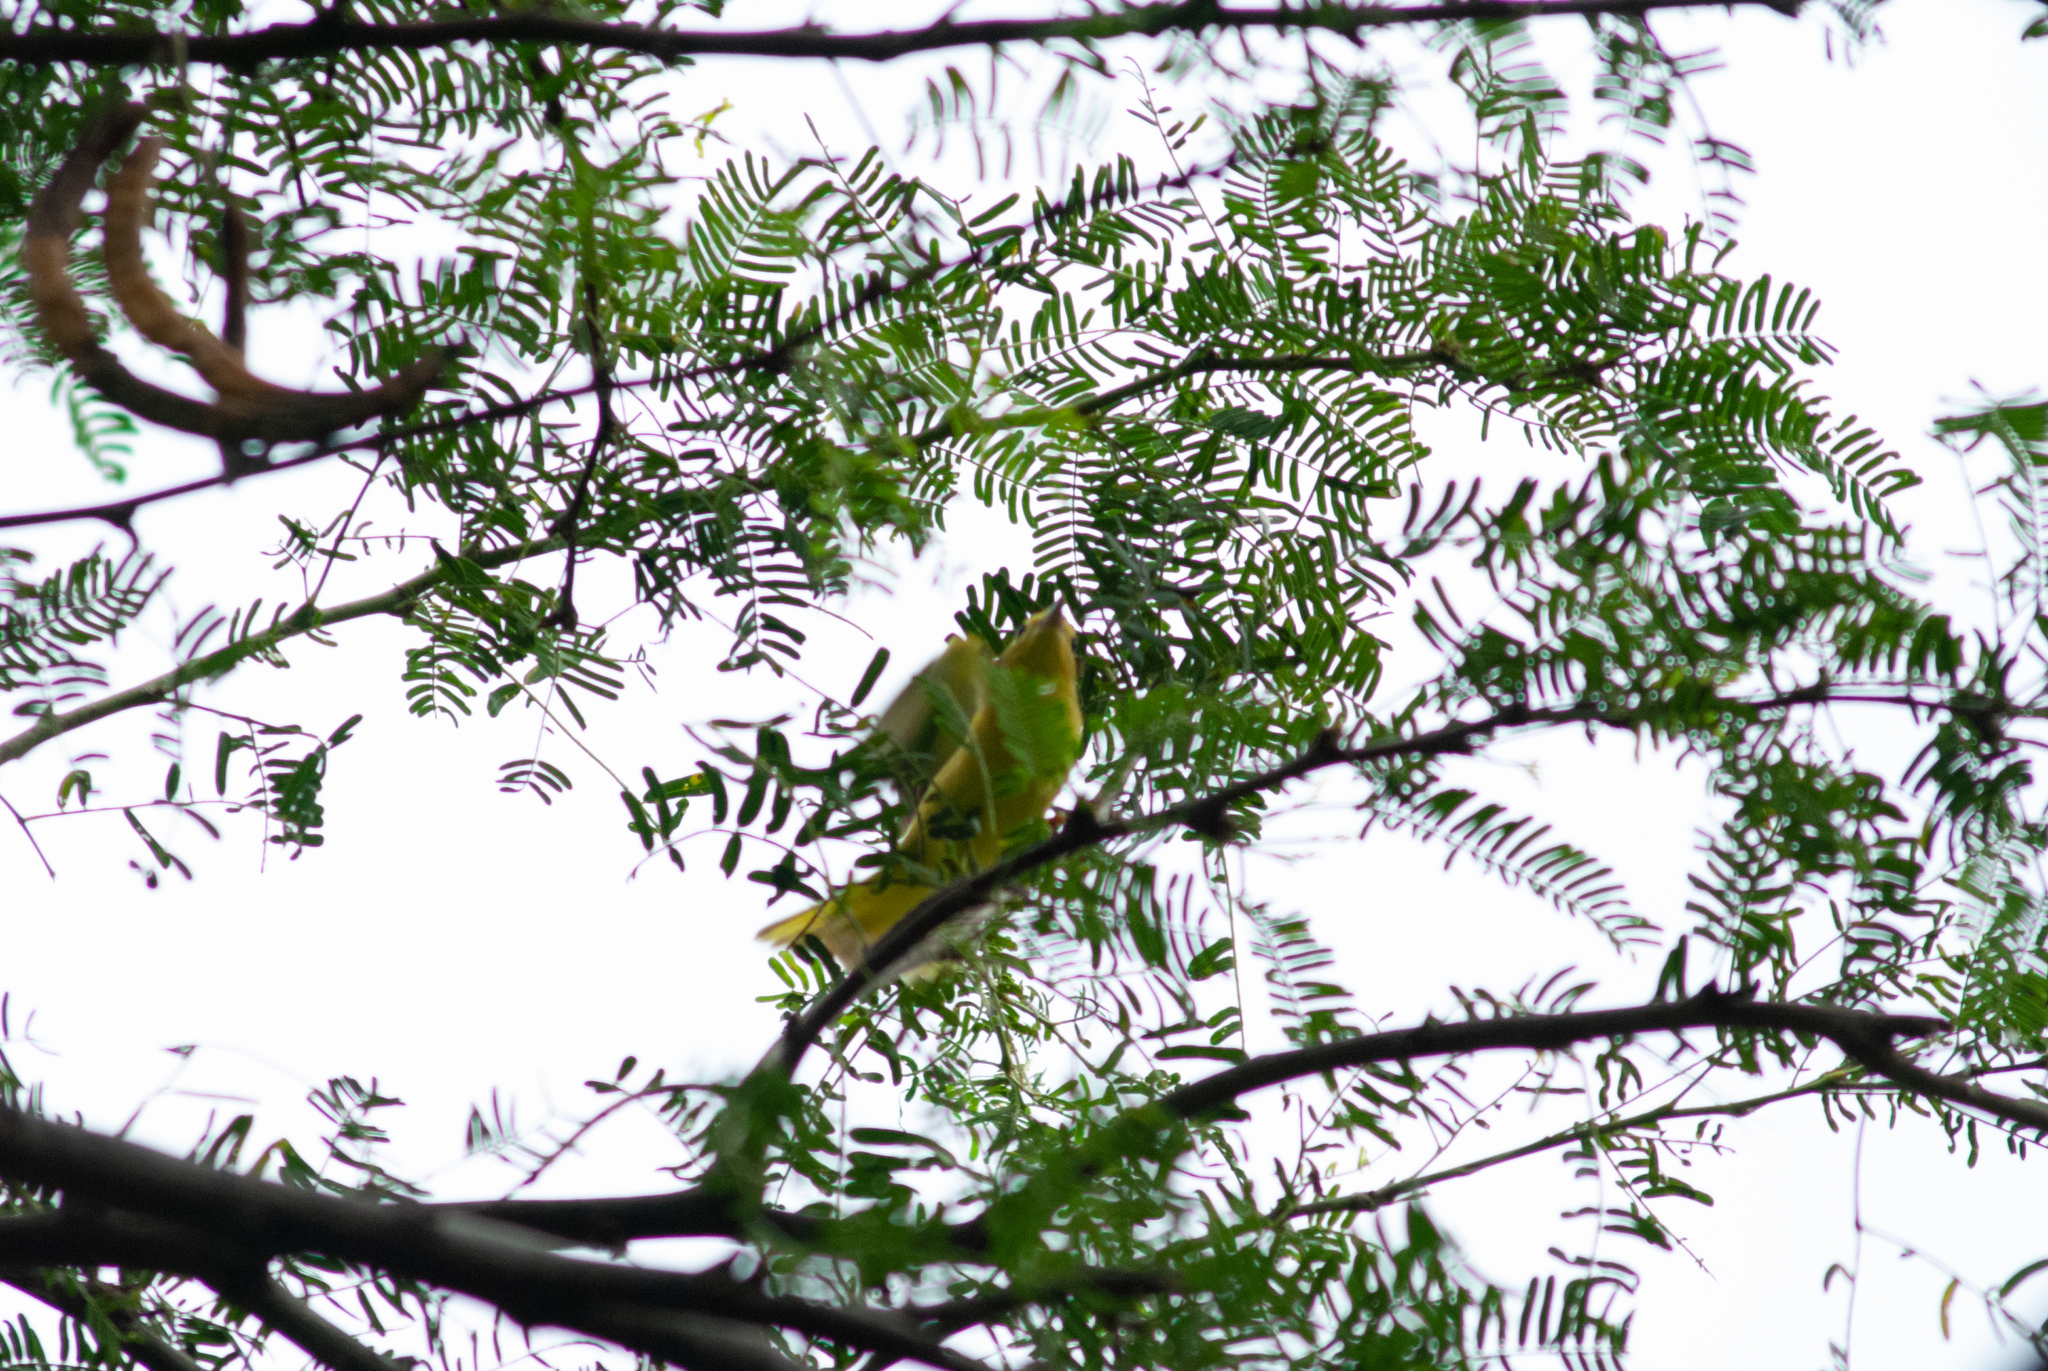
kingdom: Animalia
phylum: Chordata
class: Aves
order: Passeriformes
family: Parulidae
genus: Setophaga
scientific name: Setophaga petechia
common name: Yellow warbler
